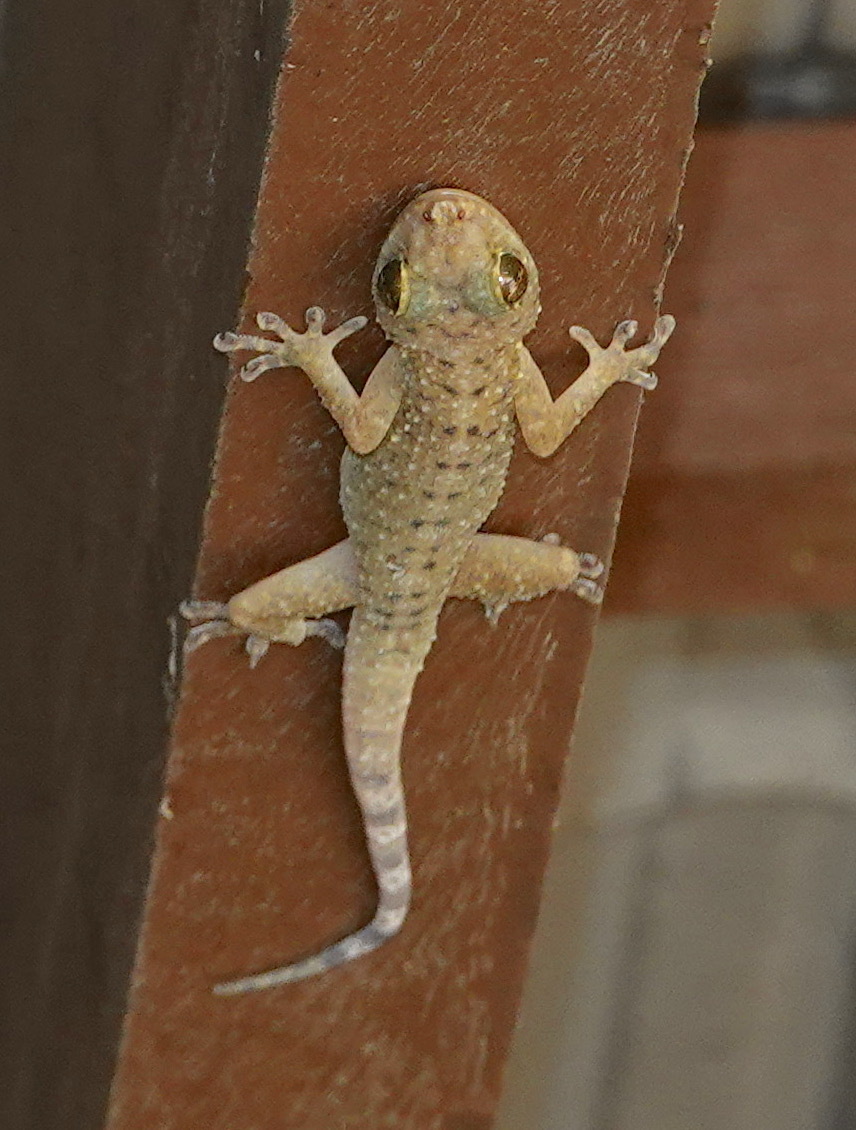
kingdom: Animalia
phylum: Chordata
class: Squamata
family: Gekkonidae
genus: Gekko
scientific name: Gekko monarchus
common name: Spotted house gecko
